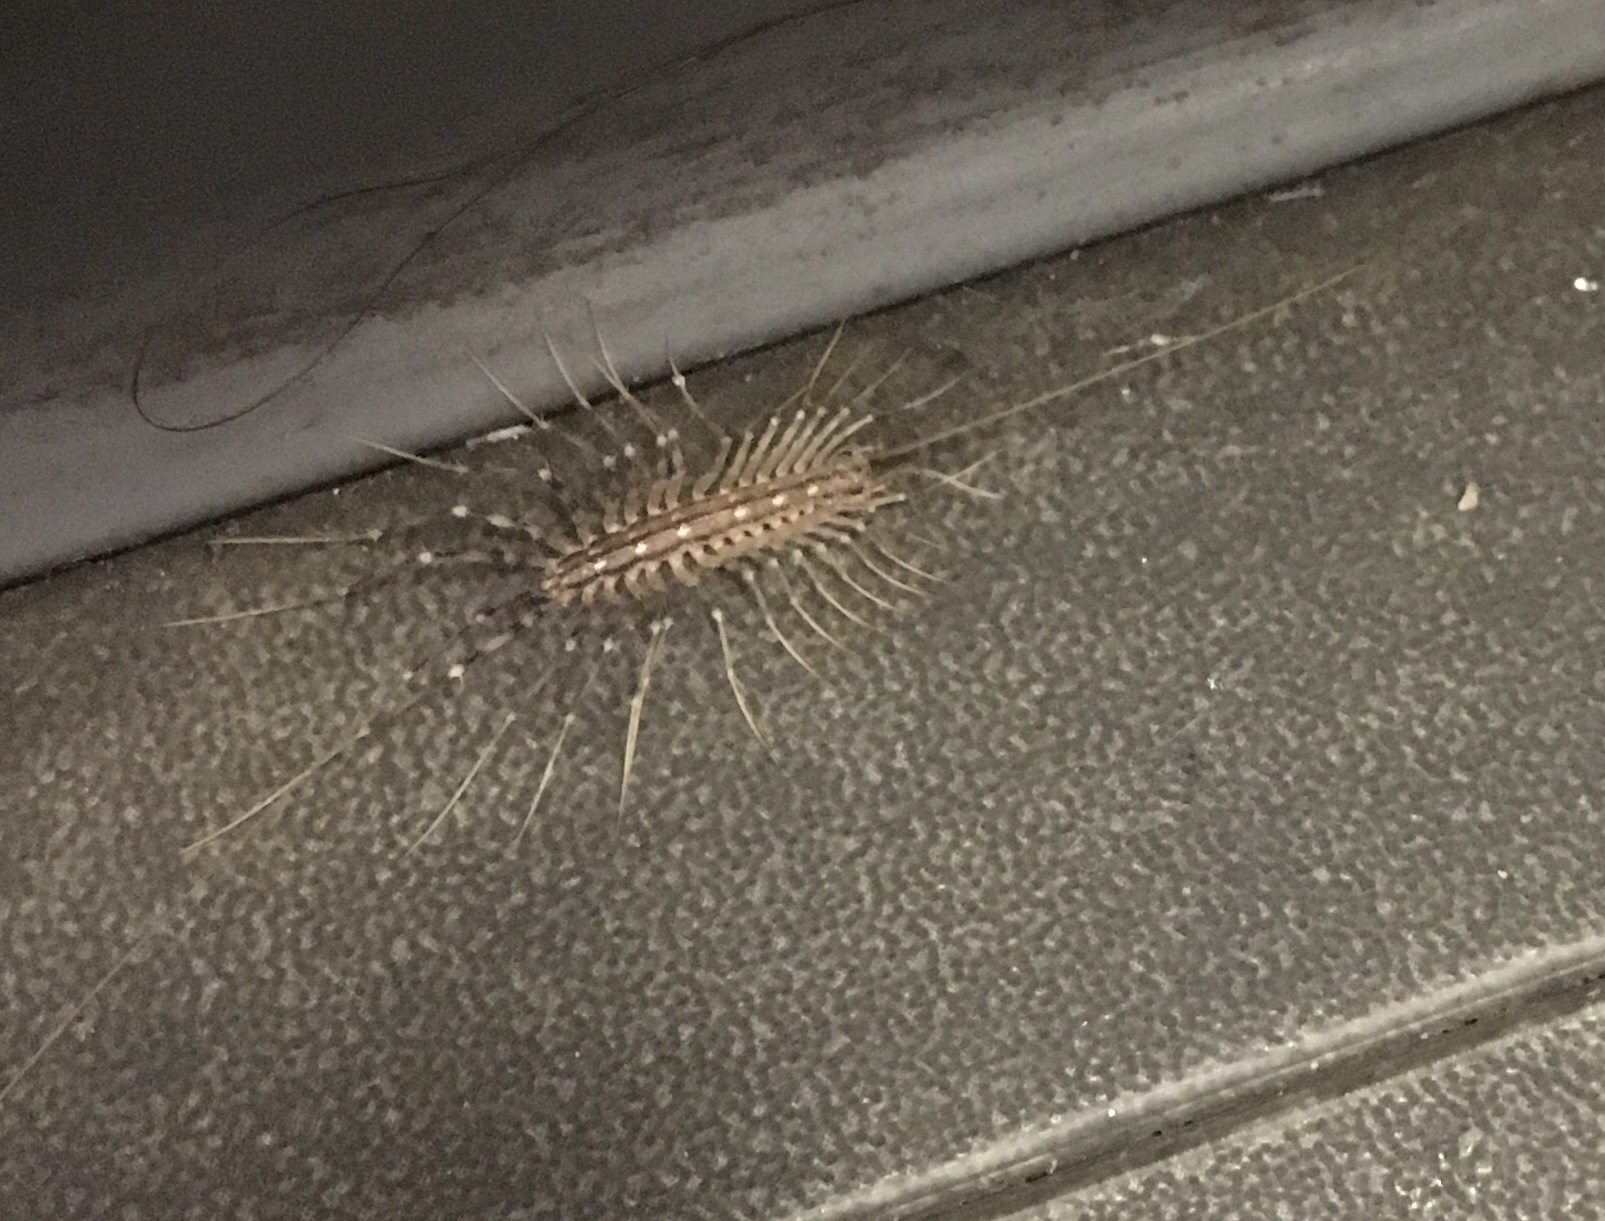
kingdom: Animalia
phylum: Arthropoda
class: Chilopoda
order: Scutigeromorpha
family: Scutigeridae
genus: Scutigera
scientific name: Scutigera coleoptrata
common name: House centipede
